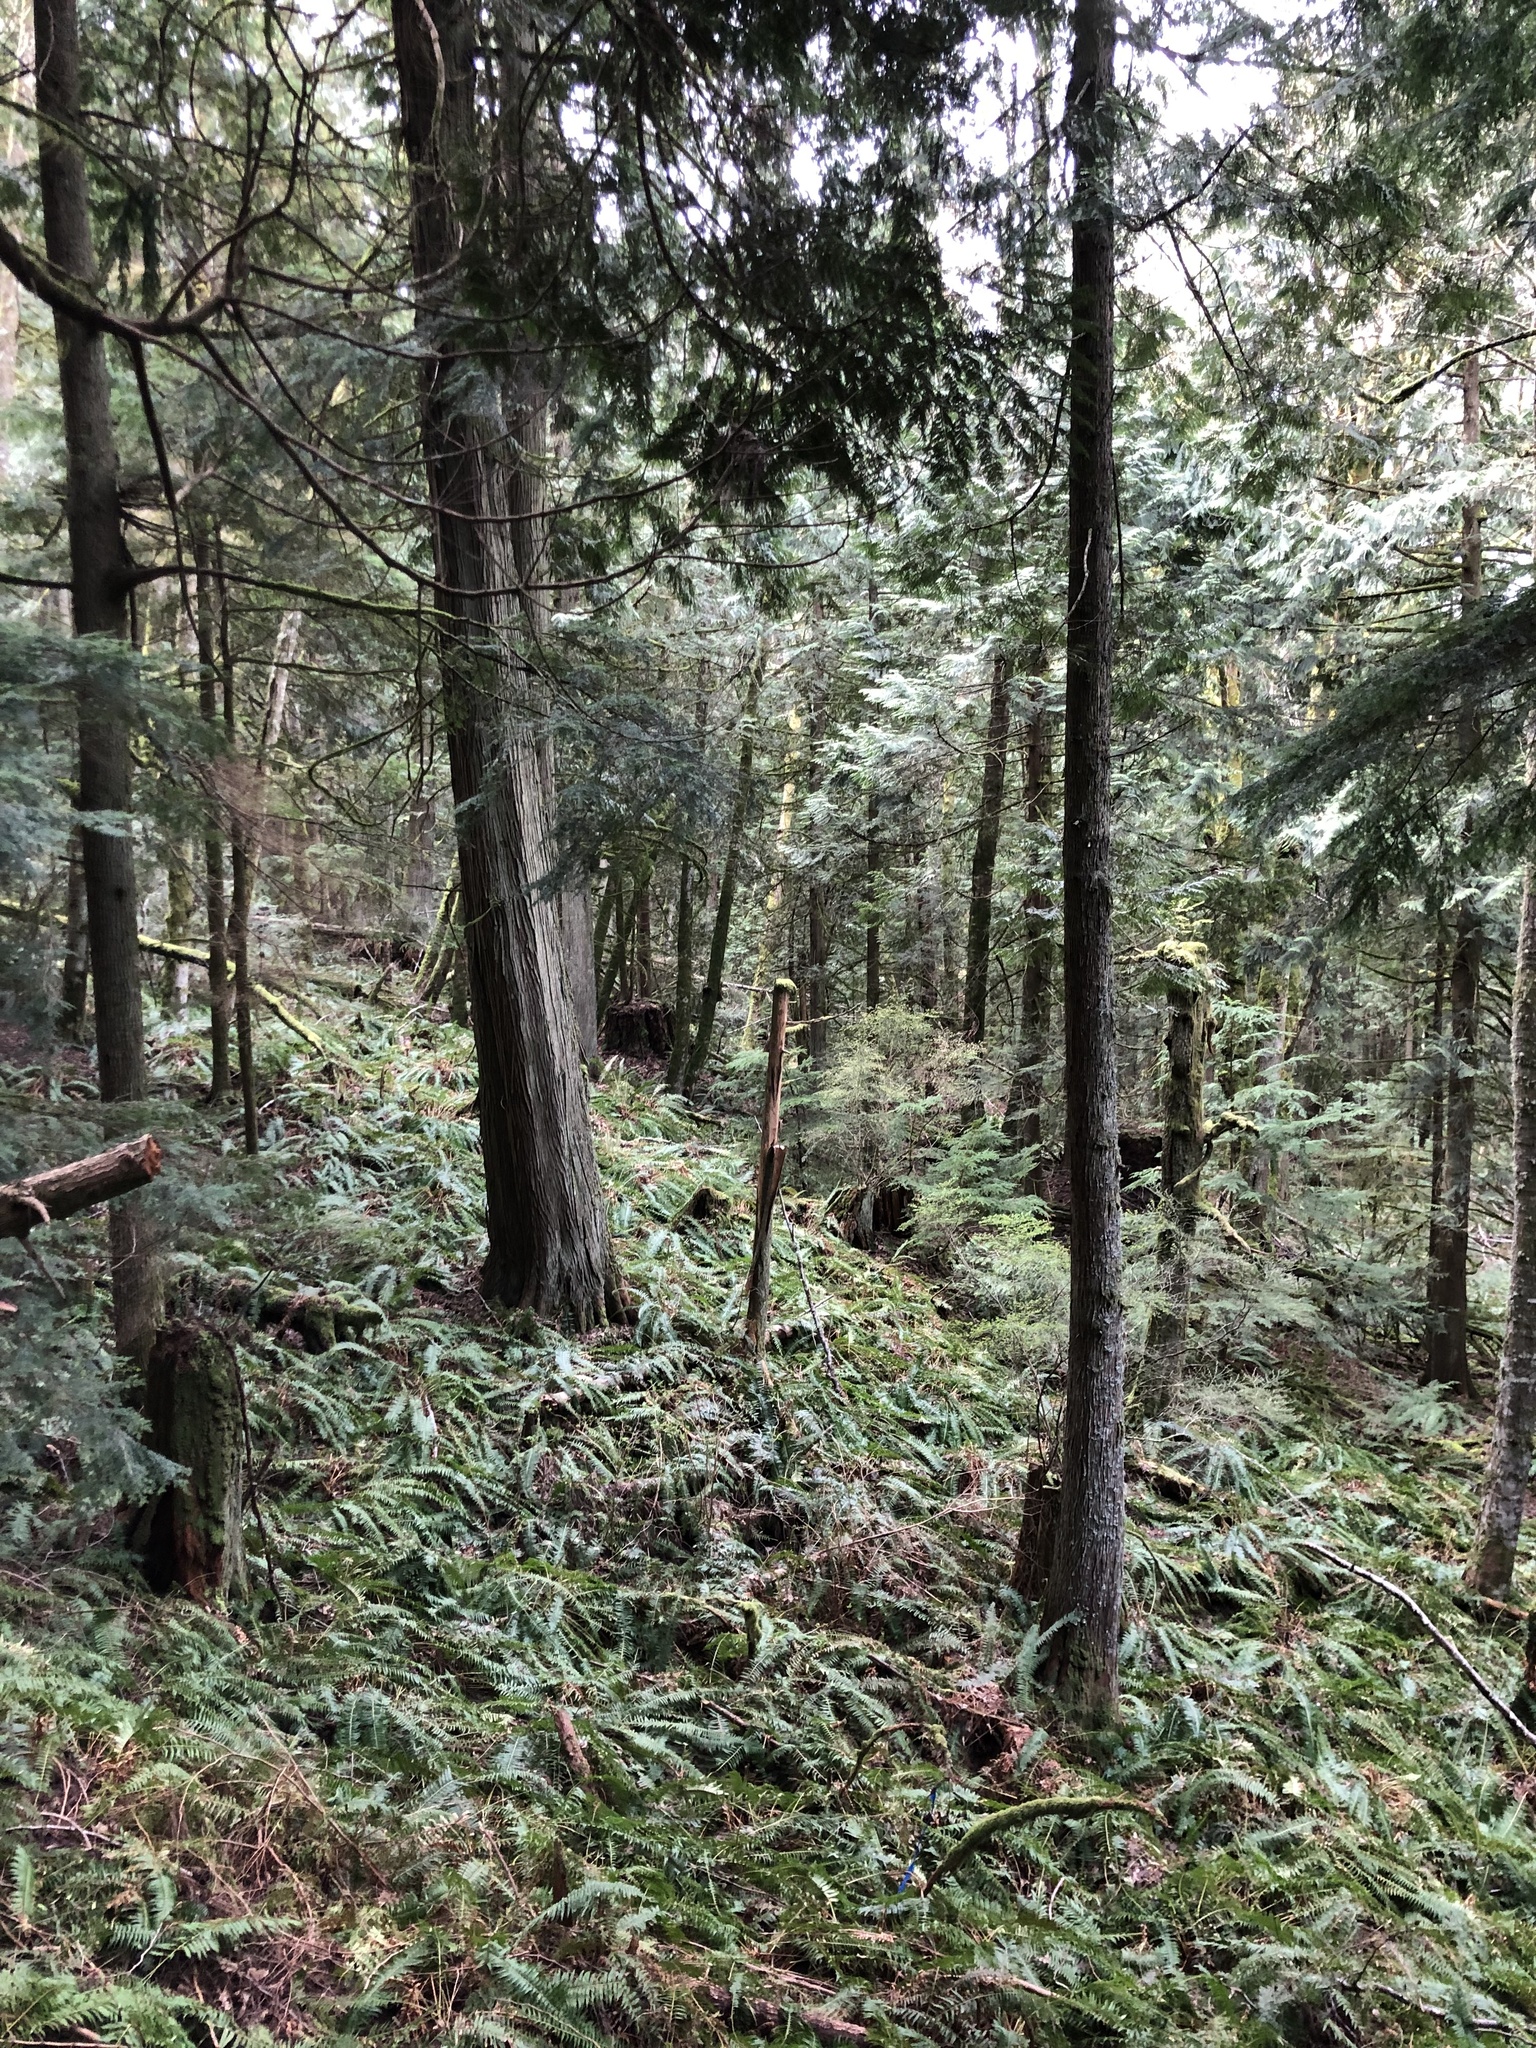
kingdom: Plantae
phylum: Tracheophyta
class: Polypodiopsida
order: Polypodiales
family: Dryopteridaceae
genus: Polystichum
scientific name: Polystichum munitum
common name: Western sword-fern
